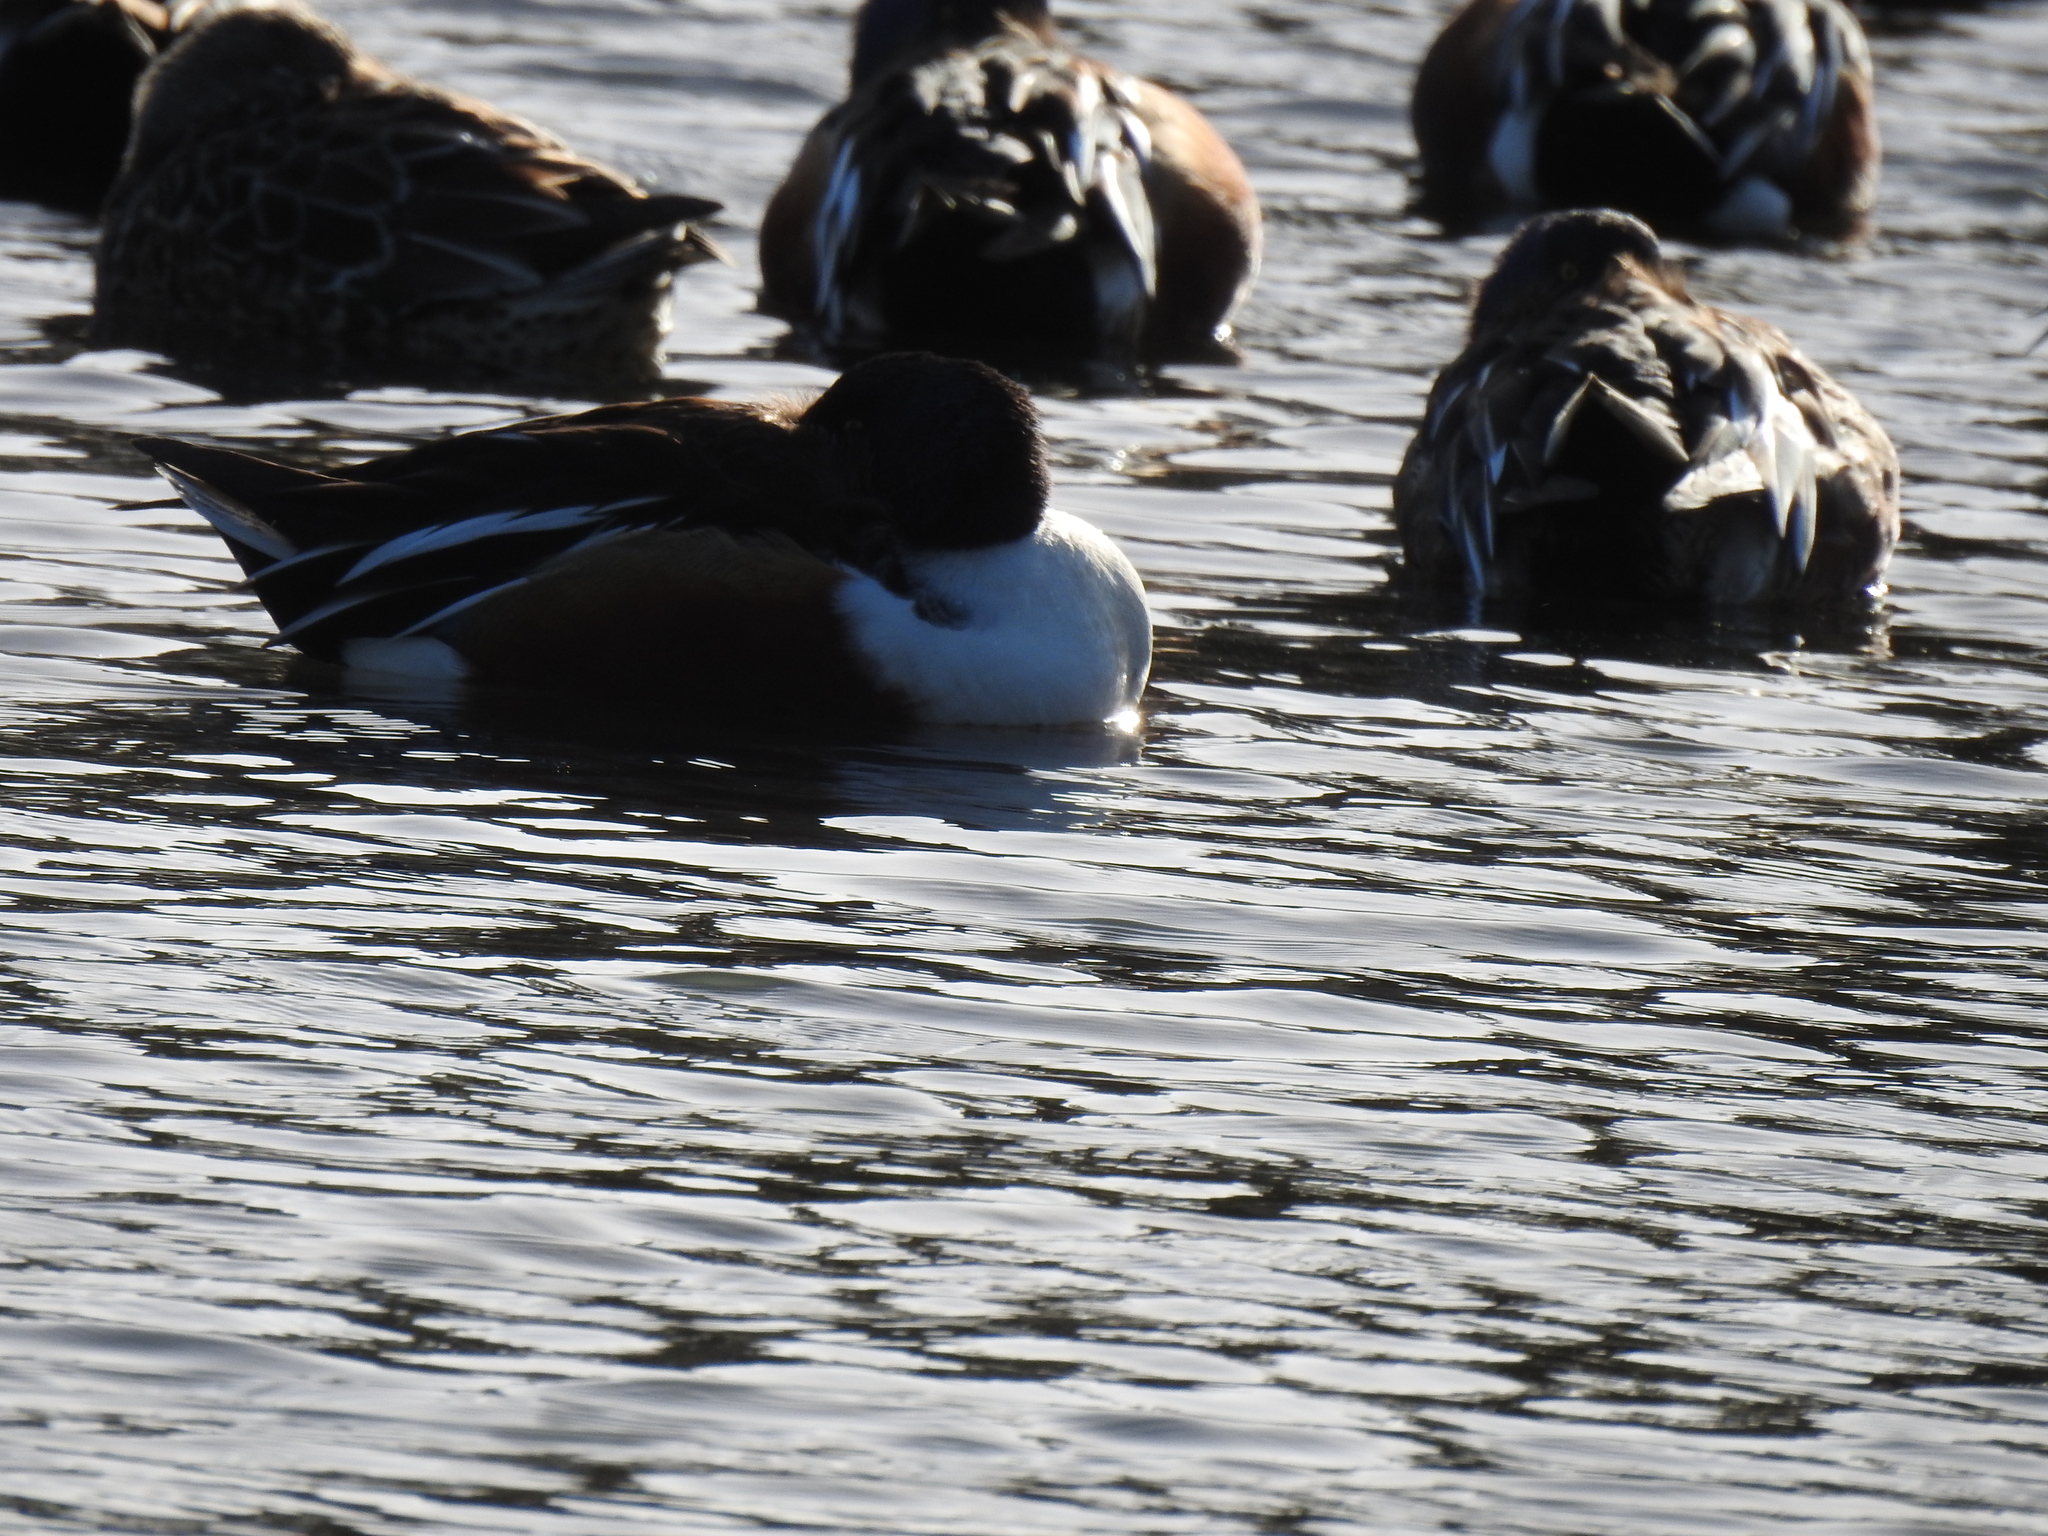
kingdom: Animalia
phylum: Chordata
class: Aves
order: Anseriformes
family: Anatidae
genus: Spatula
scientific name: Spatula clypeata
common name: Northern shoveler
